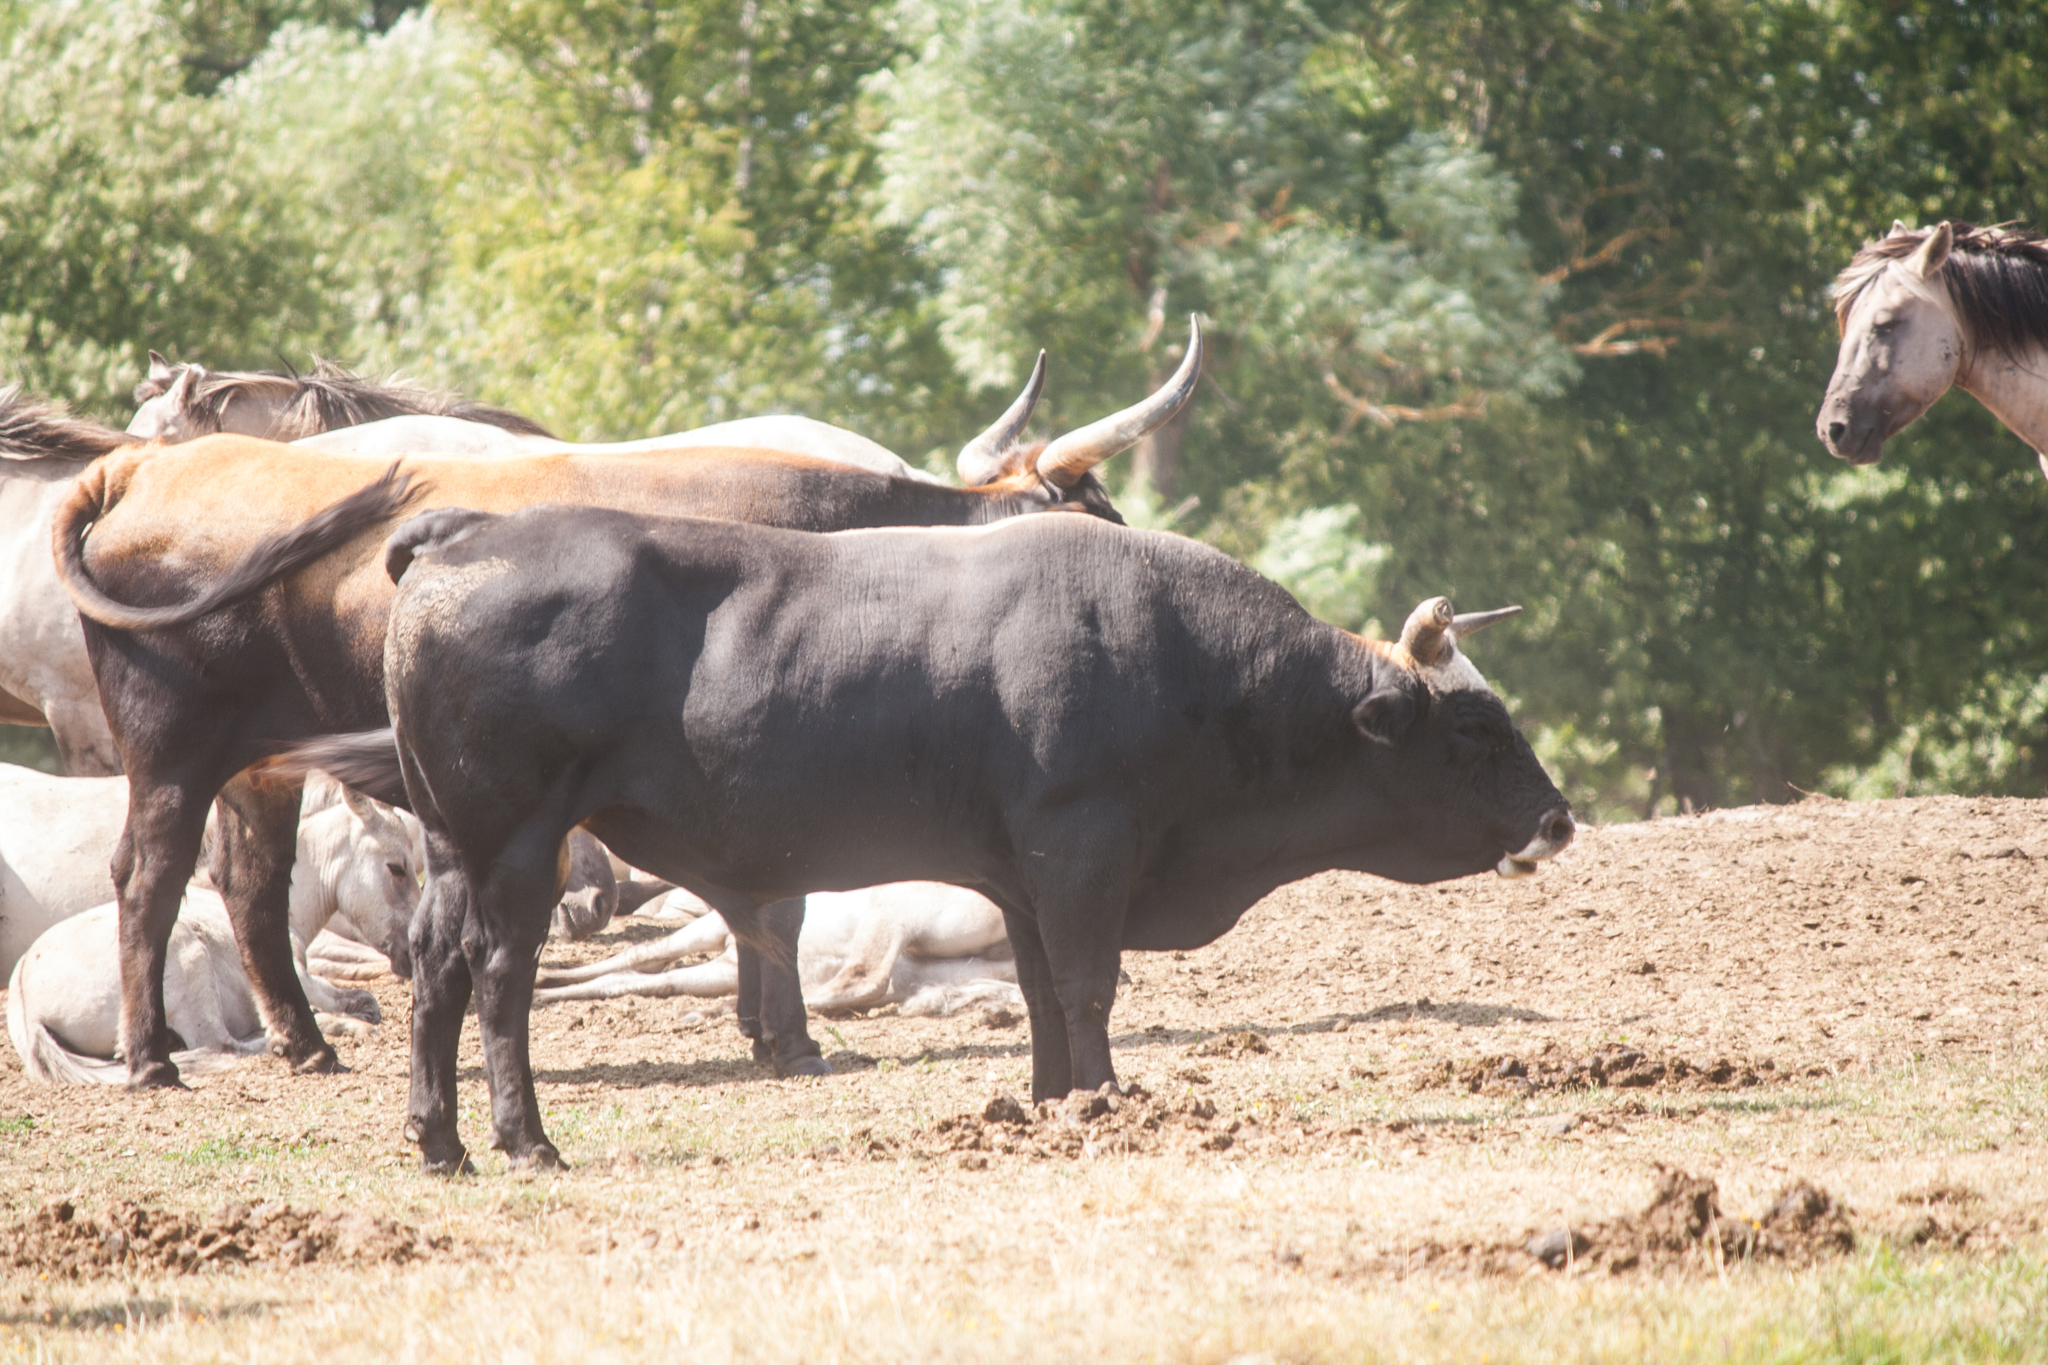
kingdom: Animalia
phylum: Chordata
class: Mammalia
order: Artiodactyla
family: Bovidae
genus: Bos
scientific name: Bos taurus
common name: Domesticated cattle
